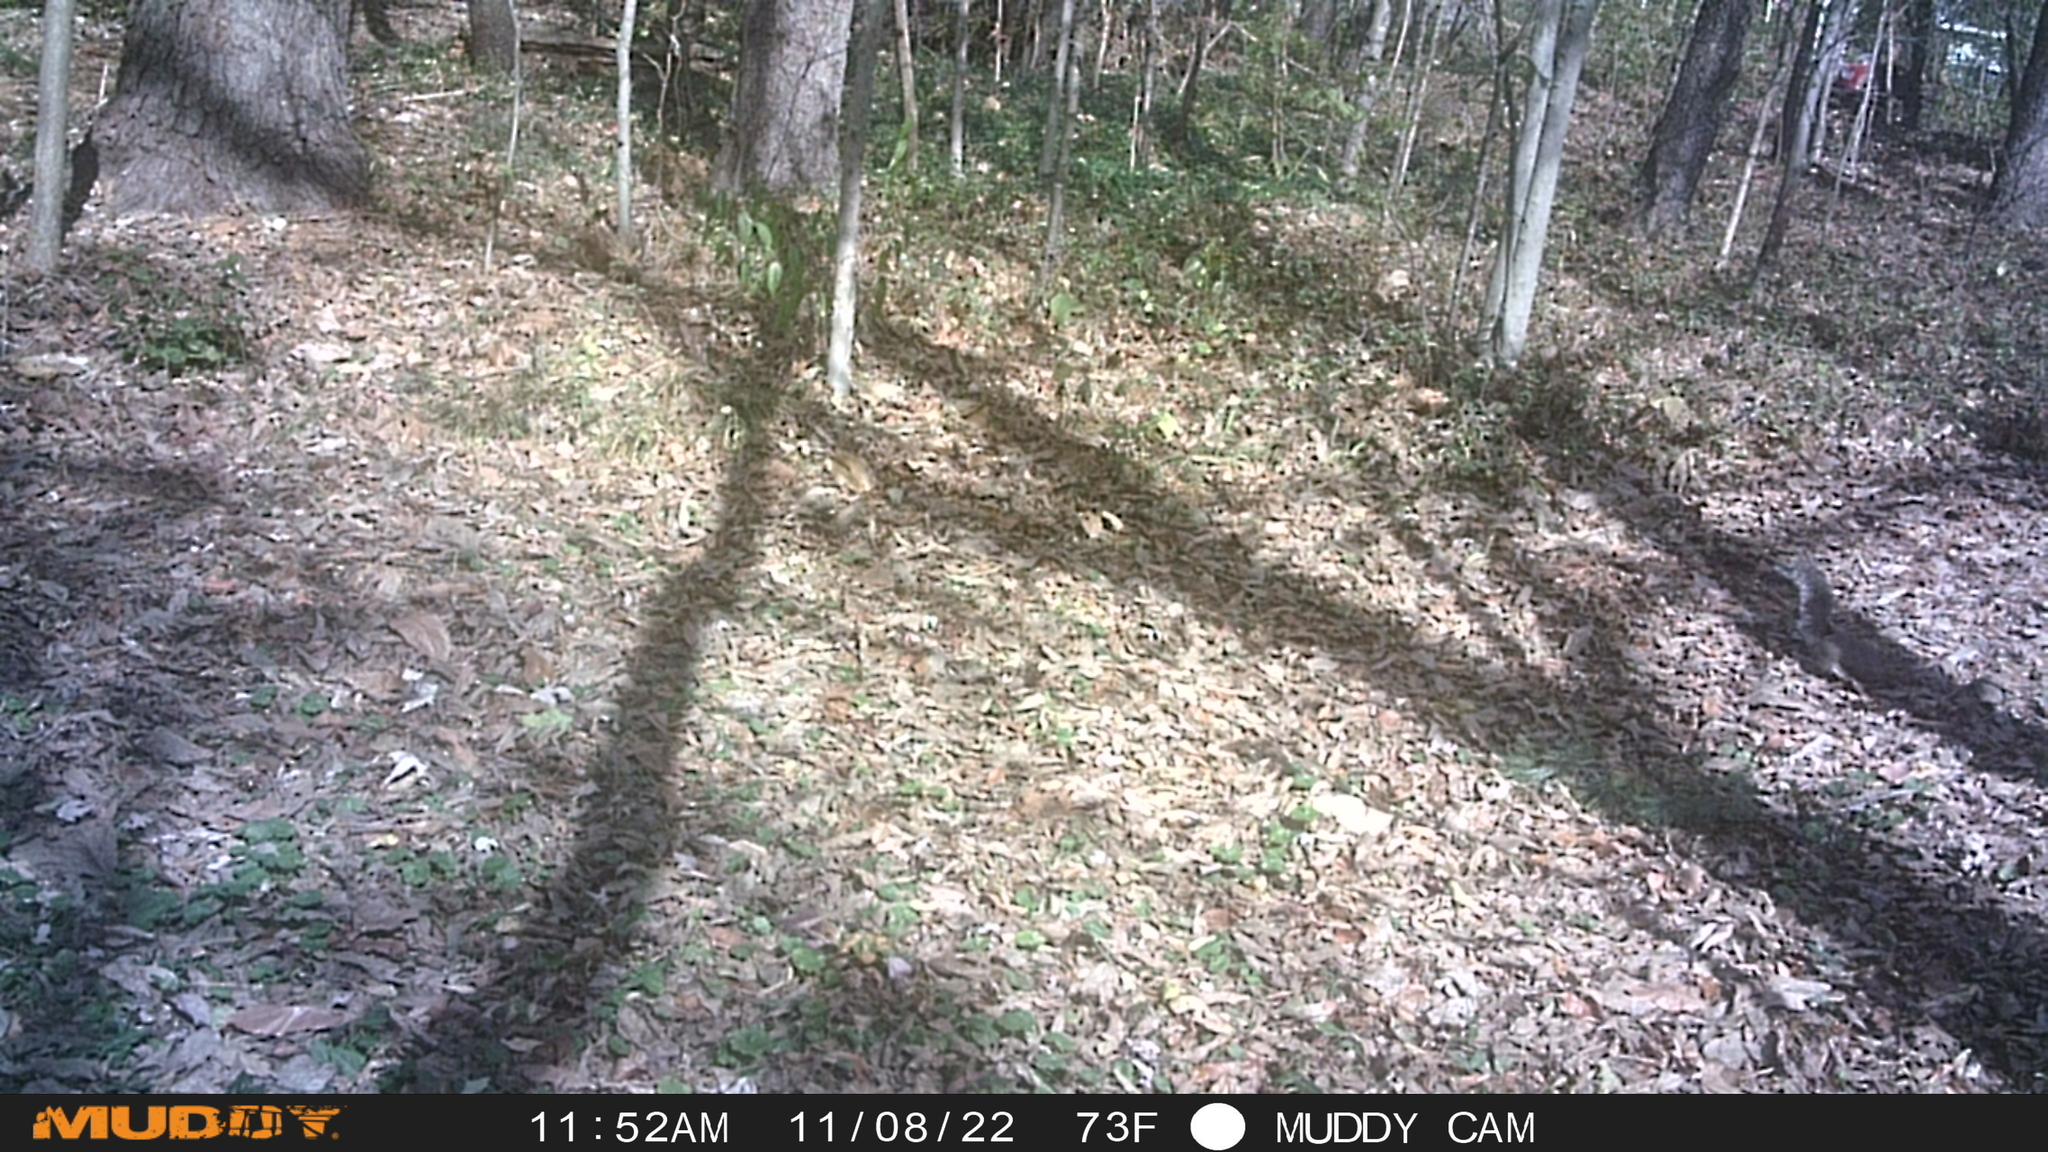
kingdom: Animalia
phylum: Chordata
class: Mammalia
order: Rodentia
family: Sciuridae
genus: Sciurus
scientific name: Sciurus carolinensis
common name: Eastern gray squirrel
